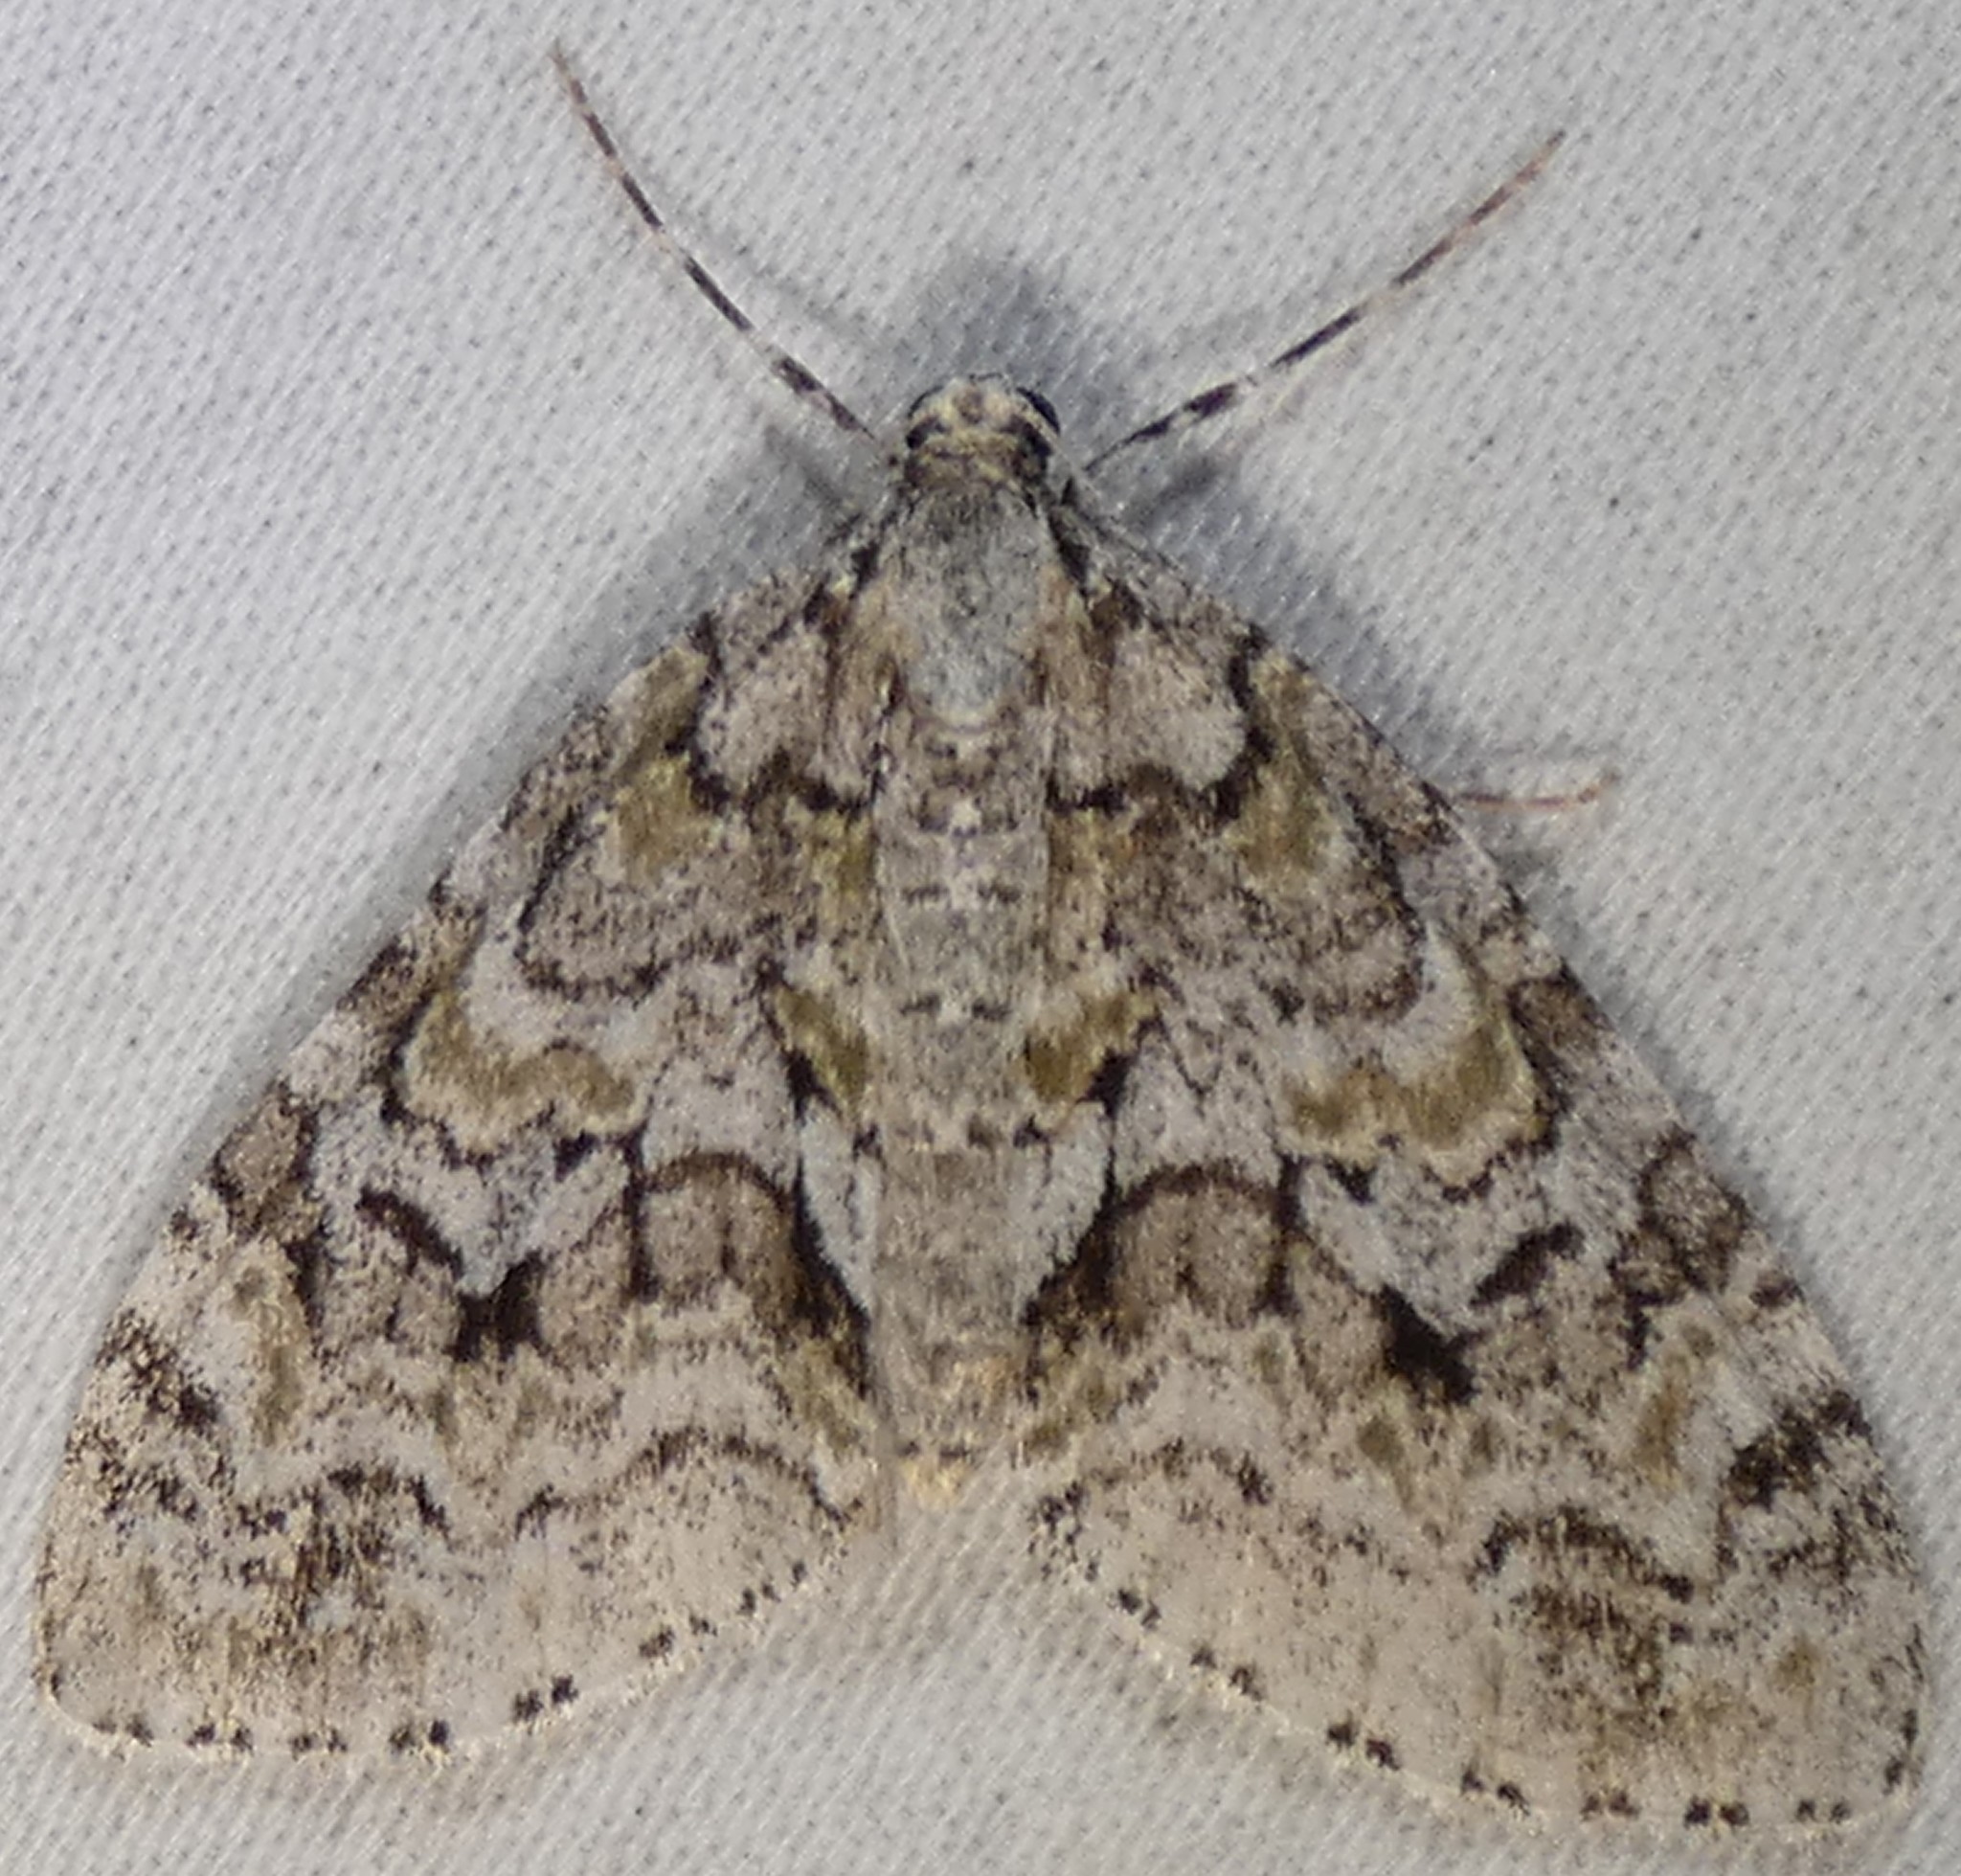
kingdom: Animalia
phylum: Arthropoda
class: Insecta
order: Lepidoptera
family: Geometridae
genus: Cladara
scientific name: Cladara limitaria
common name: Mottled gray carpet
